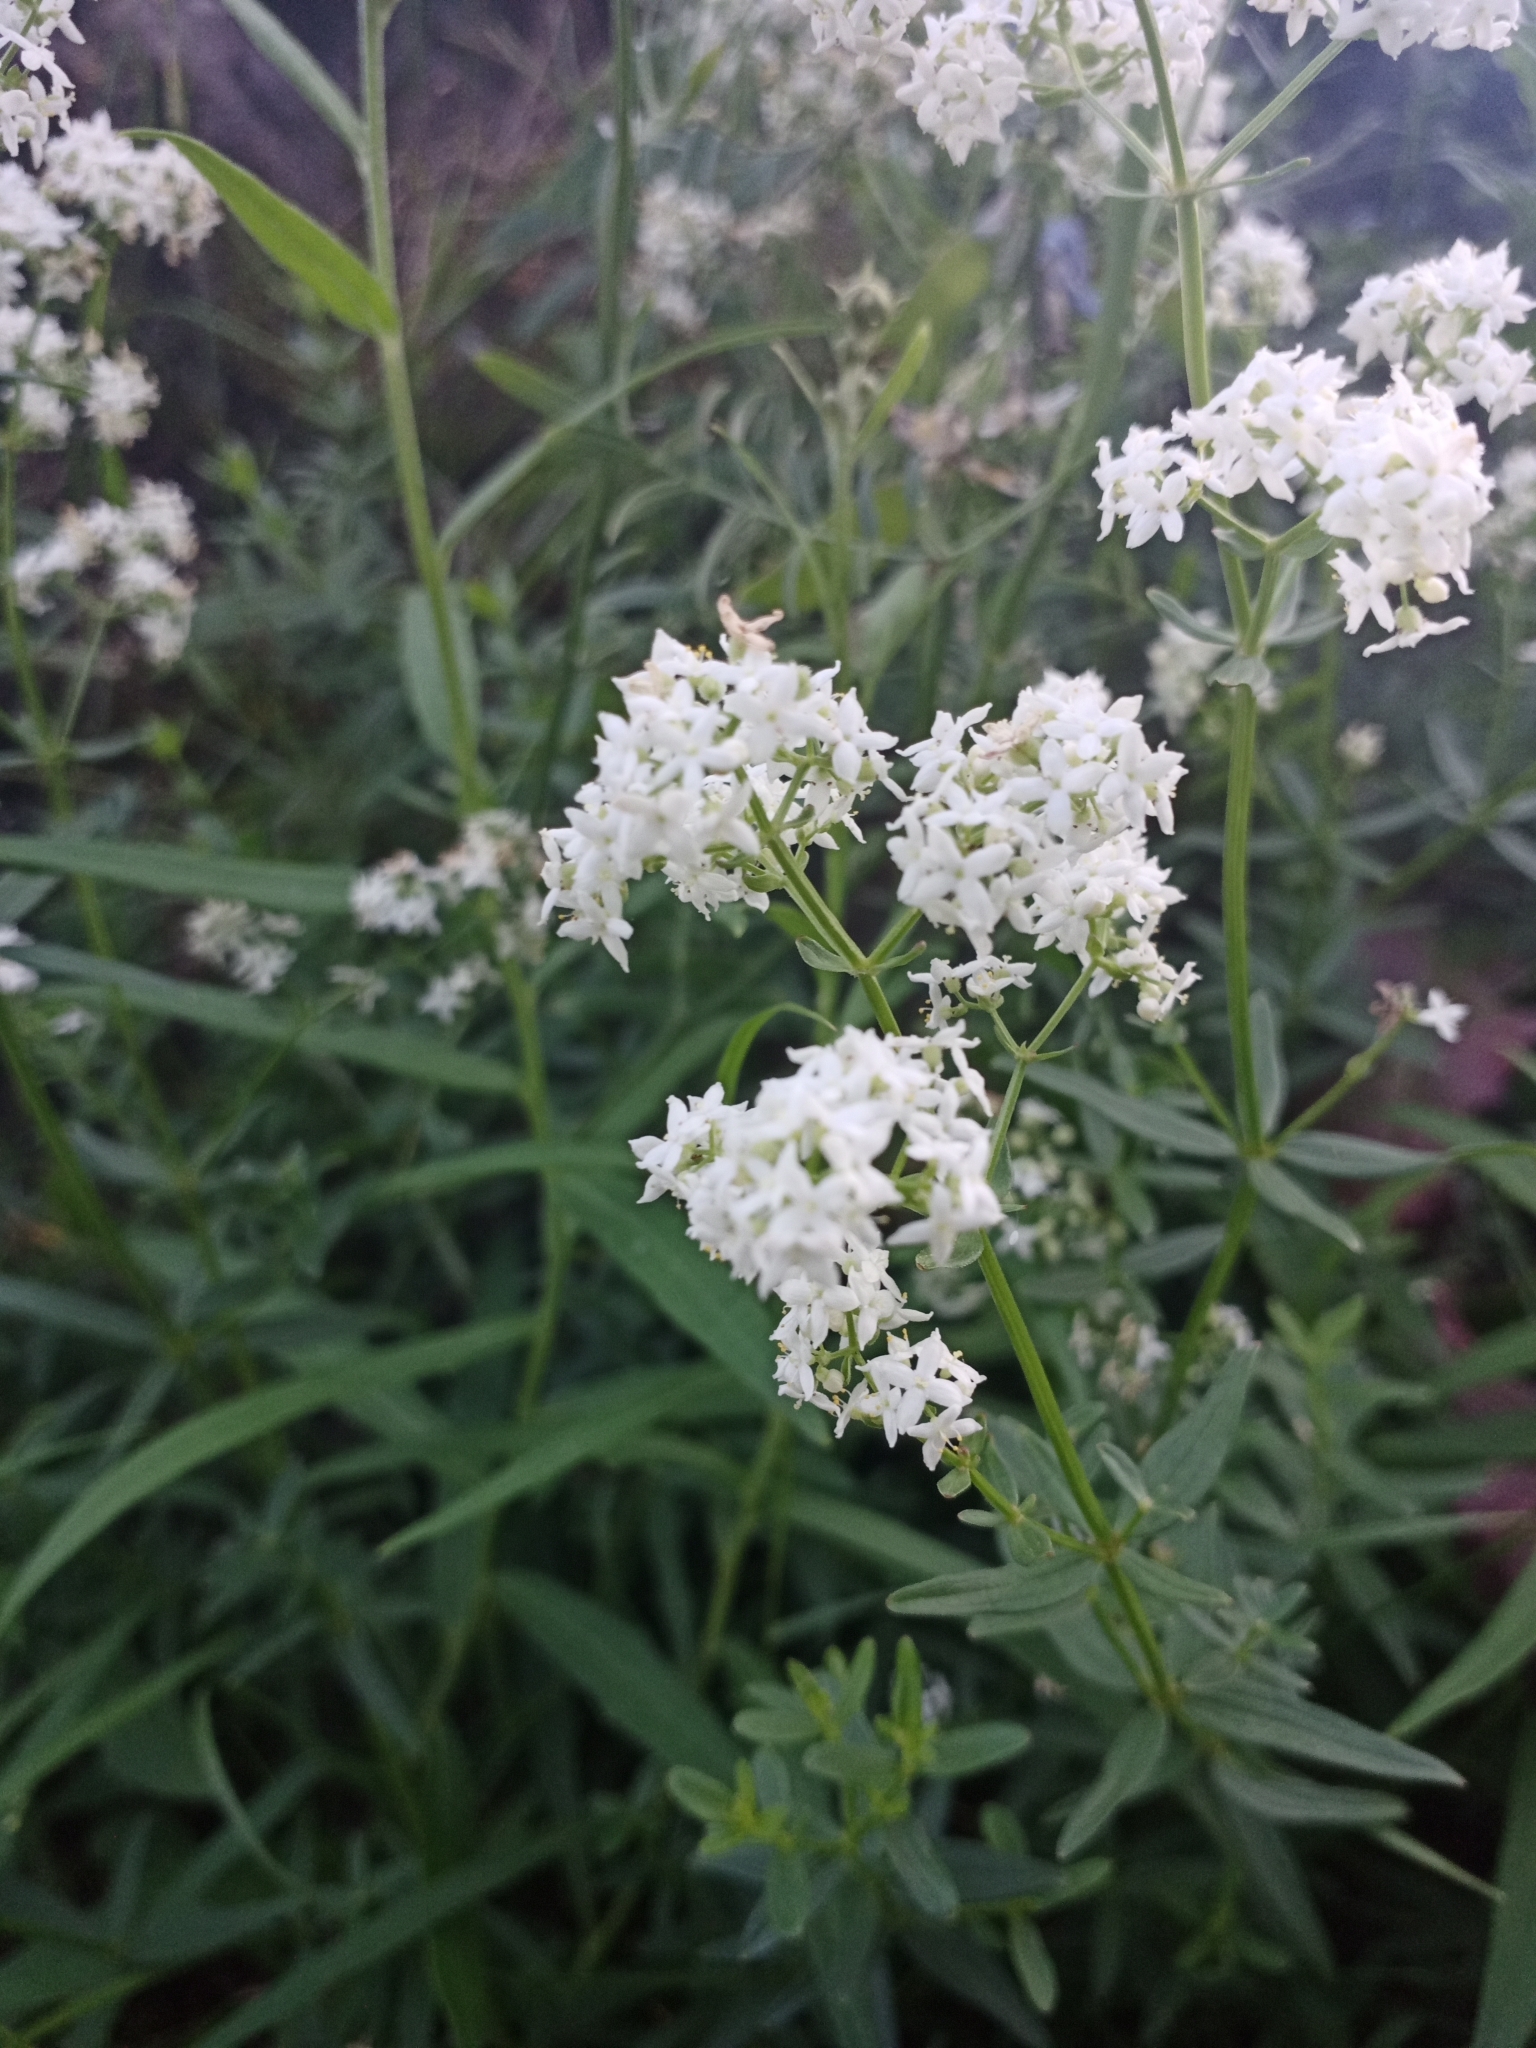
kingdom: Plantae
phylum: Tracheophyta
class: Magnoliopsida
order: Gentianales
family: Rubiaceae
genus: Galium
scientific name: Galium boreale
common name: Northern bedstraw
